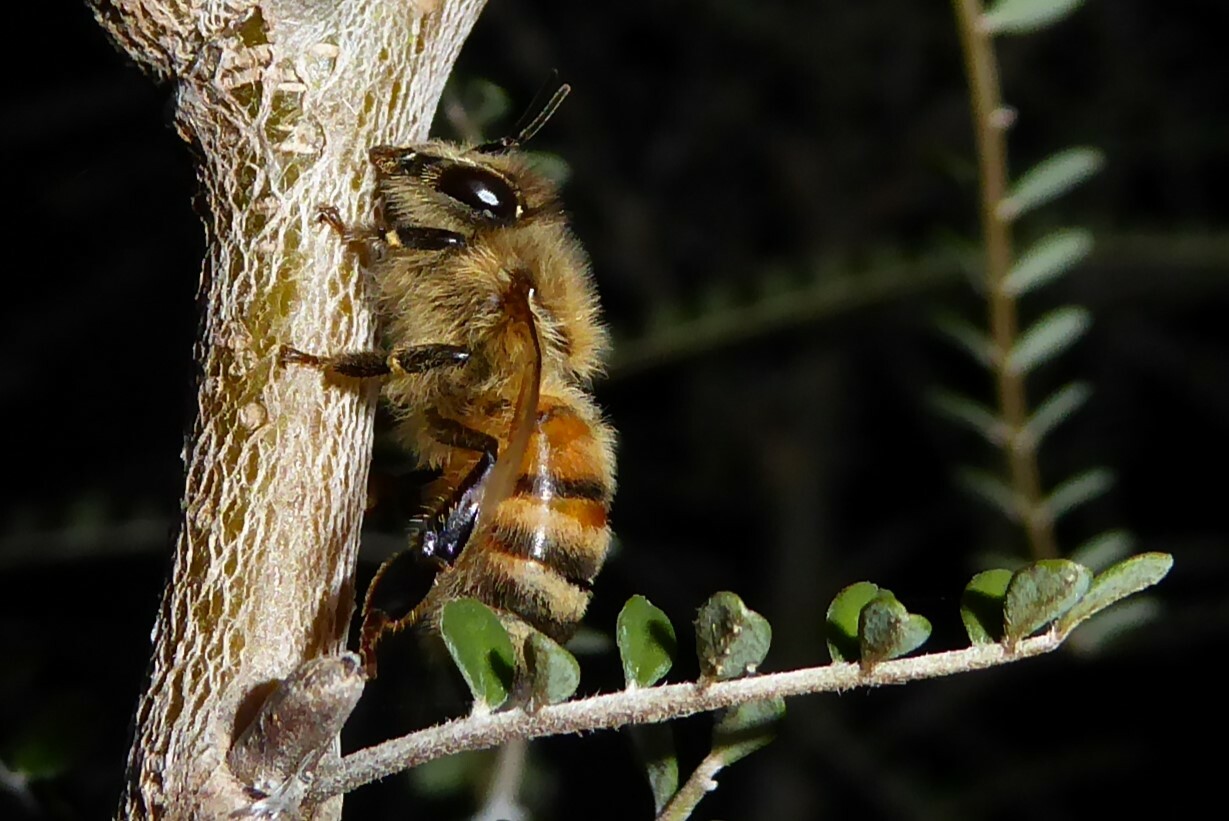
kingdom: Animalia
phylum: Arthropoda
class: Insecta
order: Hymenoptera
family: Apidae
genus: Apis
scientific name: Apis mellifera
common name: Honey bee
